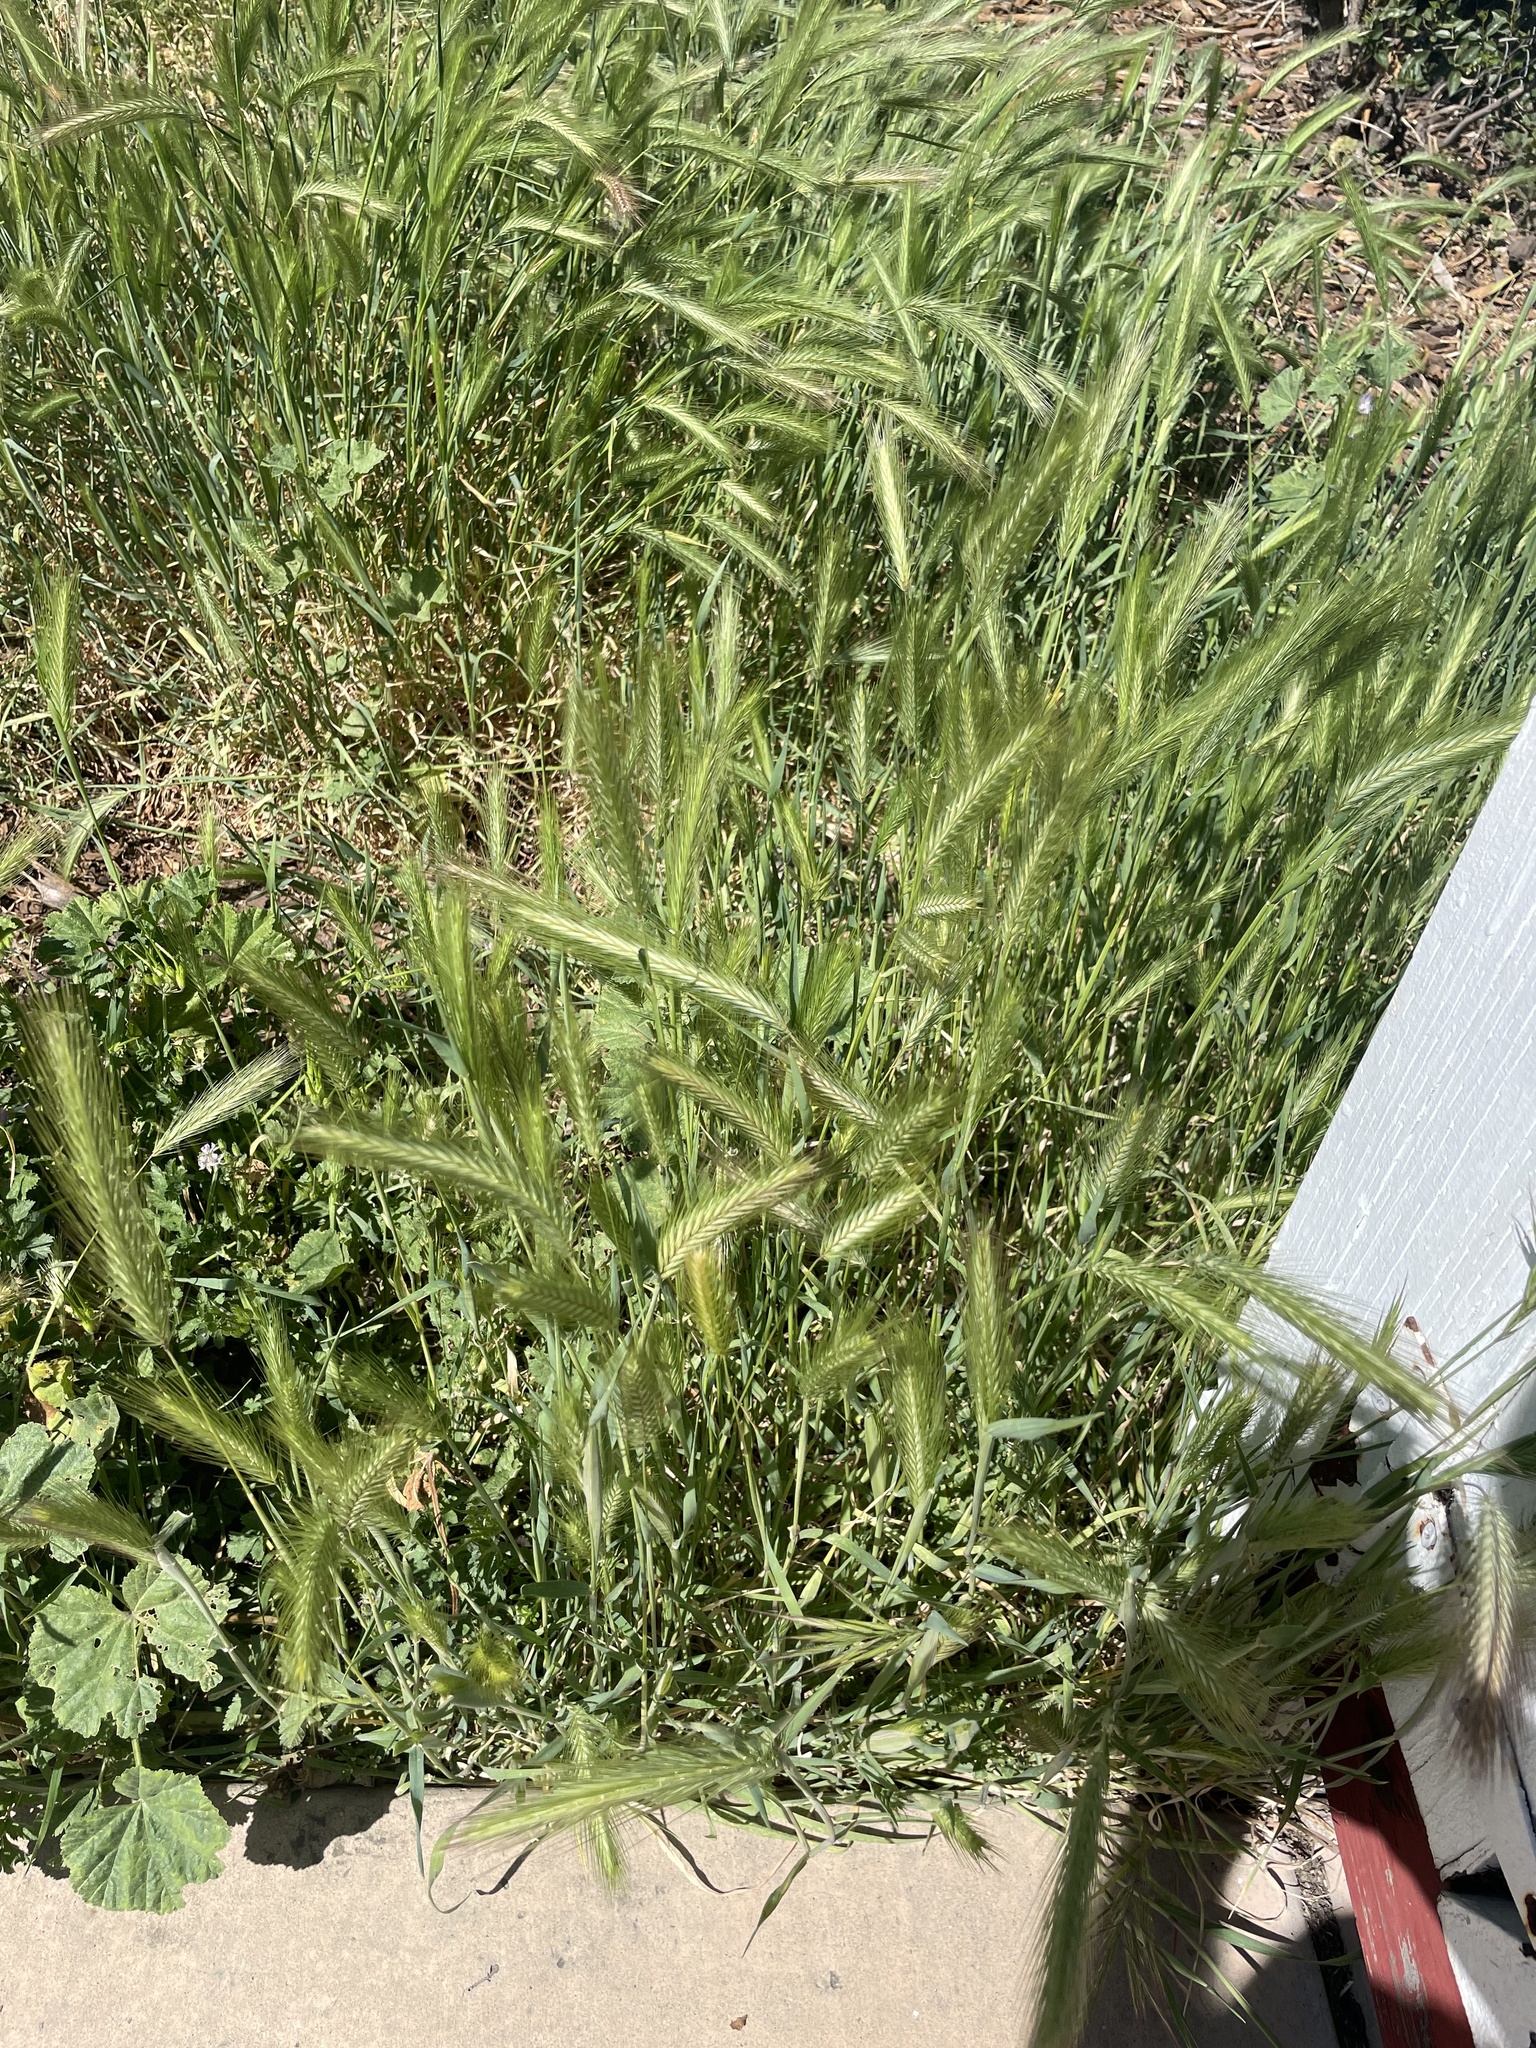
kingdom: Plantae
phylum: Tracheophyta
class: Liliopsida
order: Poales
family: Poaceae
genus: Hordeum
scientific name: Hordeum murinum
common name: Wall barley
